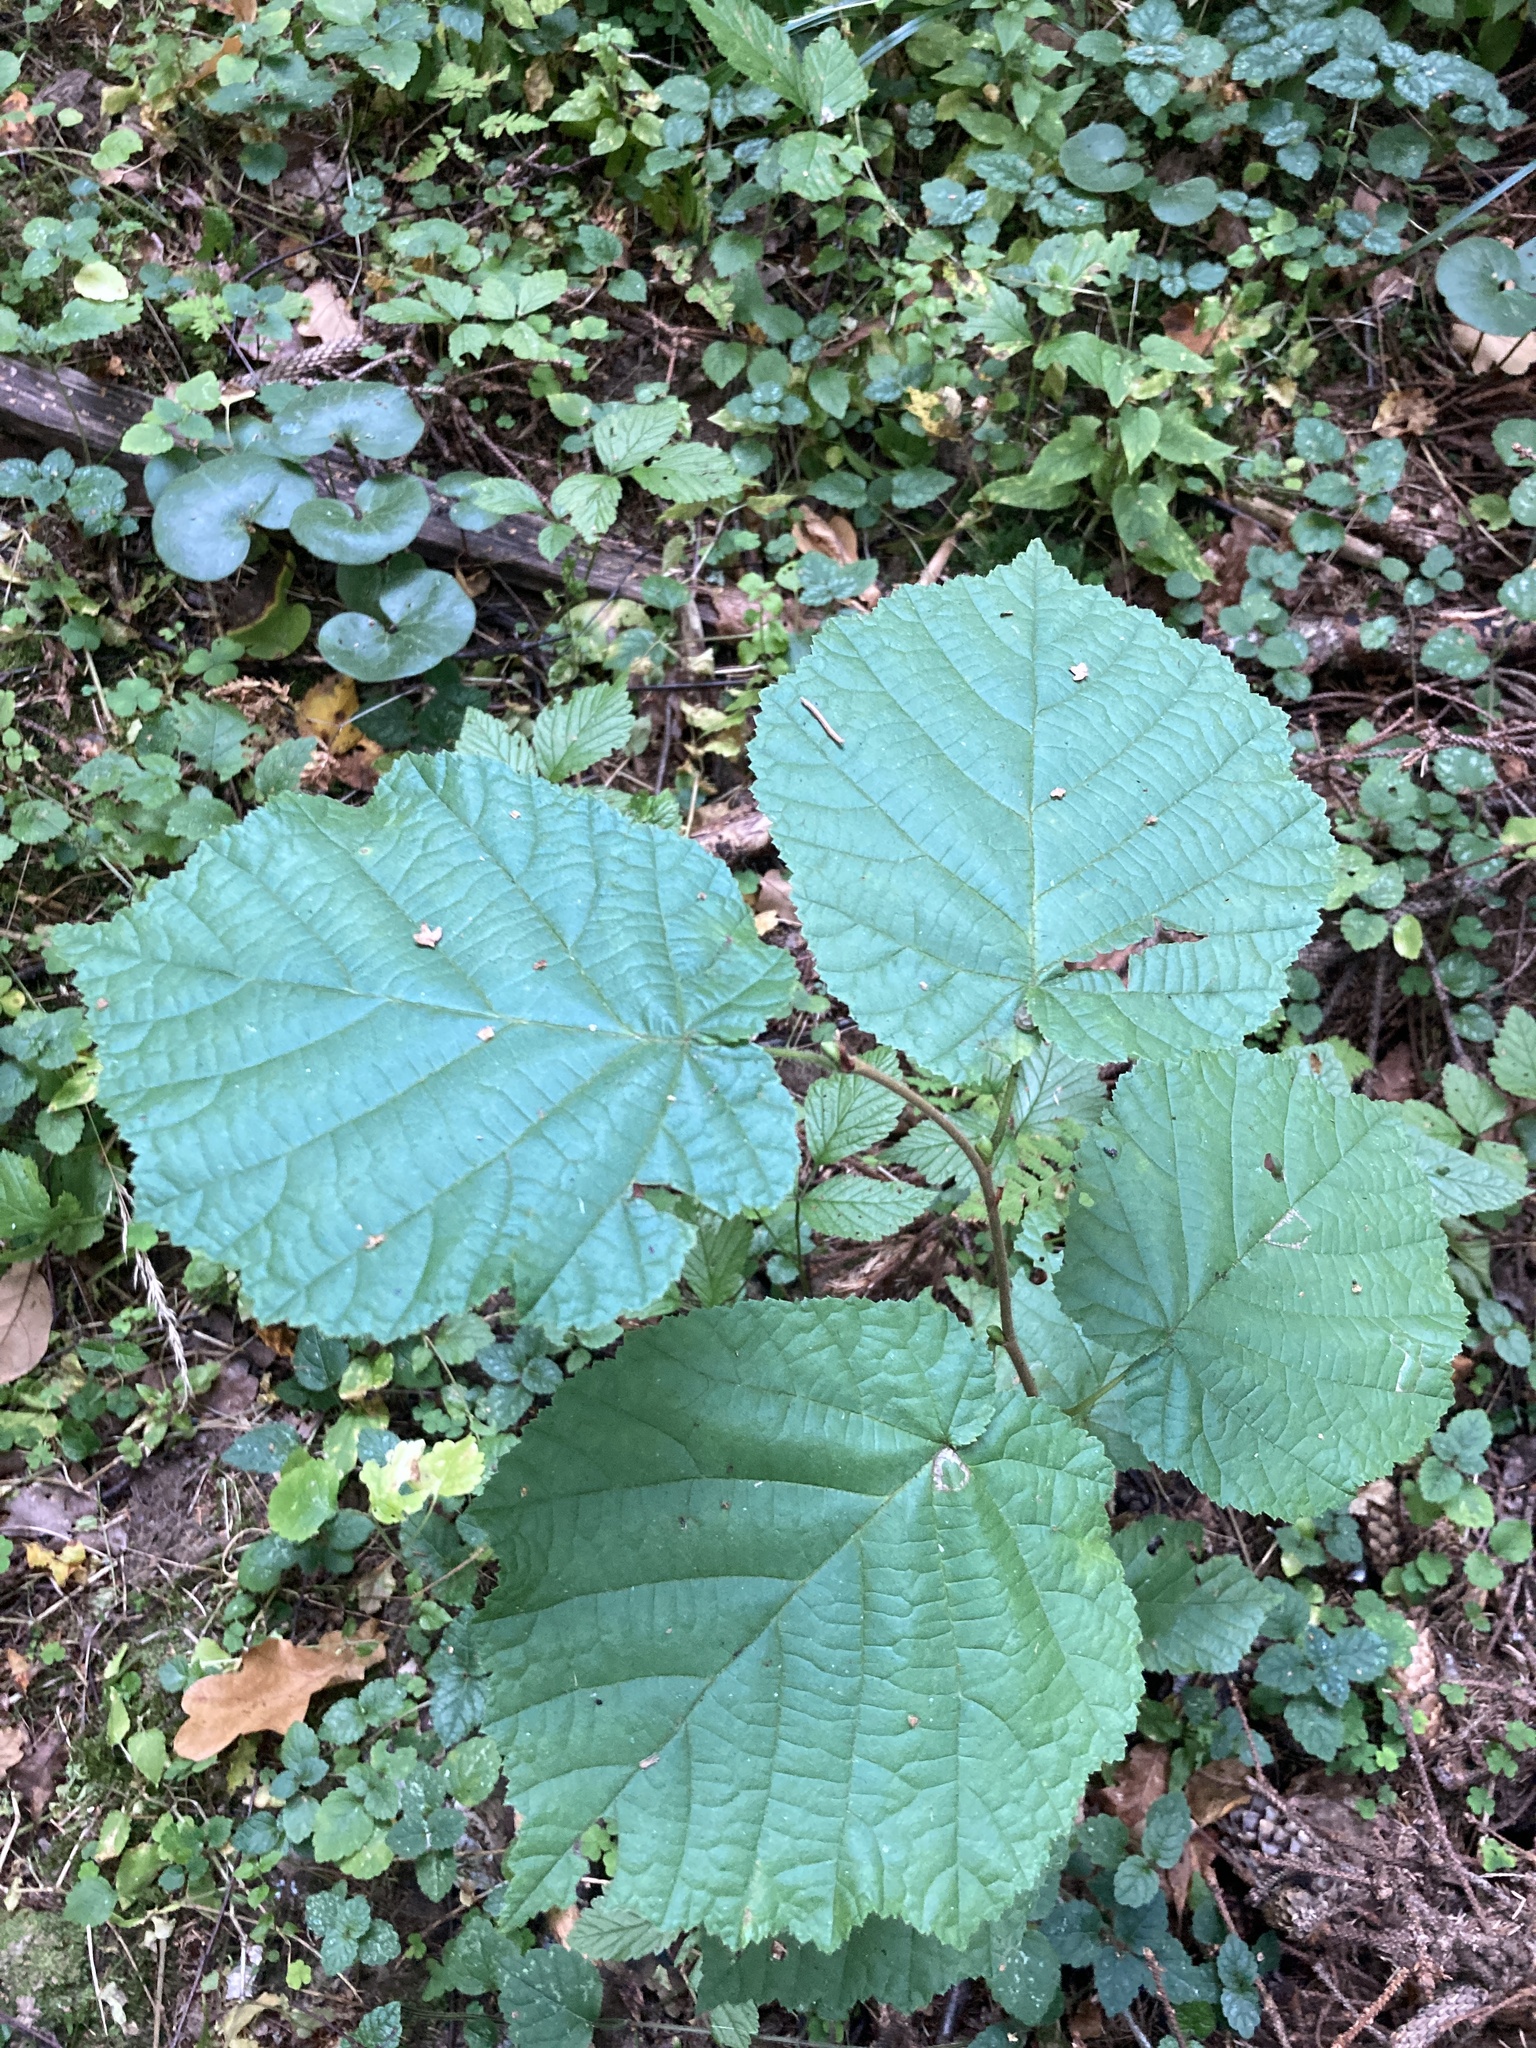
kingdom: Plantae
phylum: Tracheophyta
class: Magnoliopsida
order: Fagales
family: Betulaceae
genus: Corylus
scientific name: Corylus avellana
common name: European hazel
